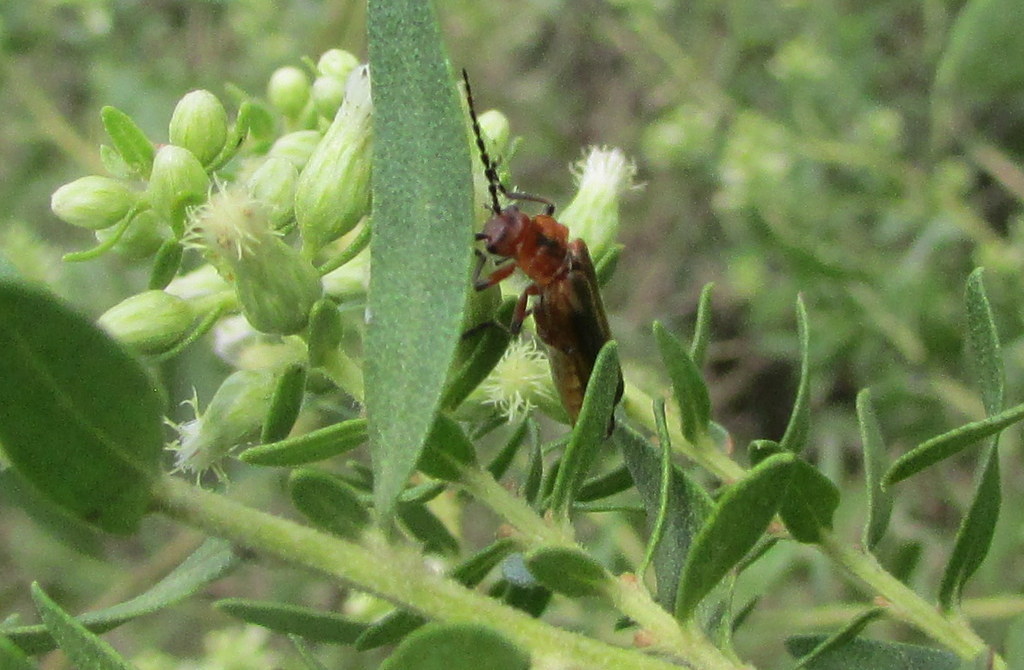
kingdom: Animalia
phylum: Arthropoda
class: Insecta
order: Coleoptera
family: Cantharidae
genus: Discodon
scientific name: Discodon
